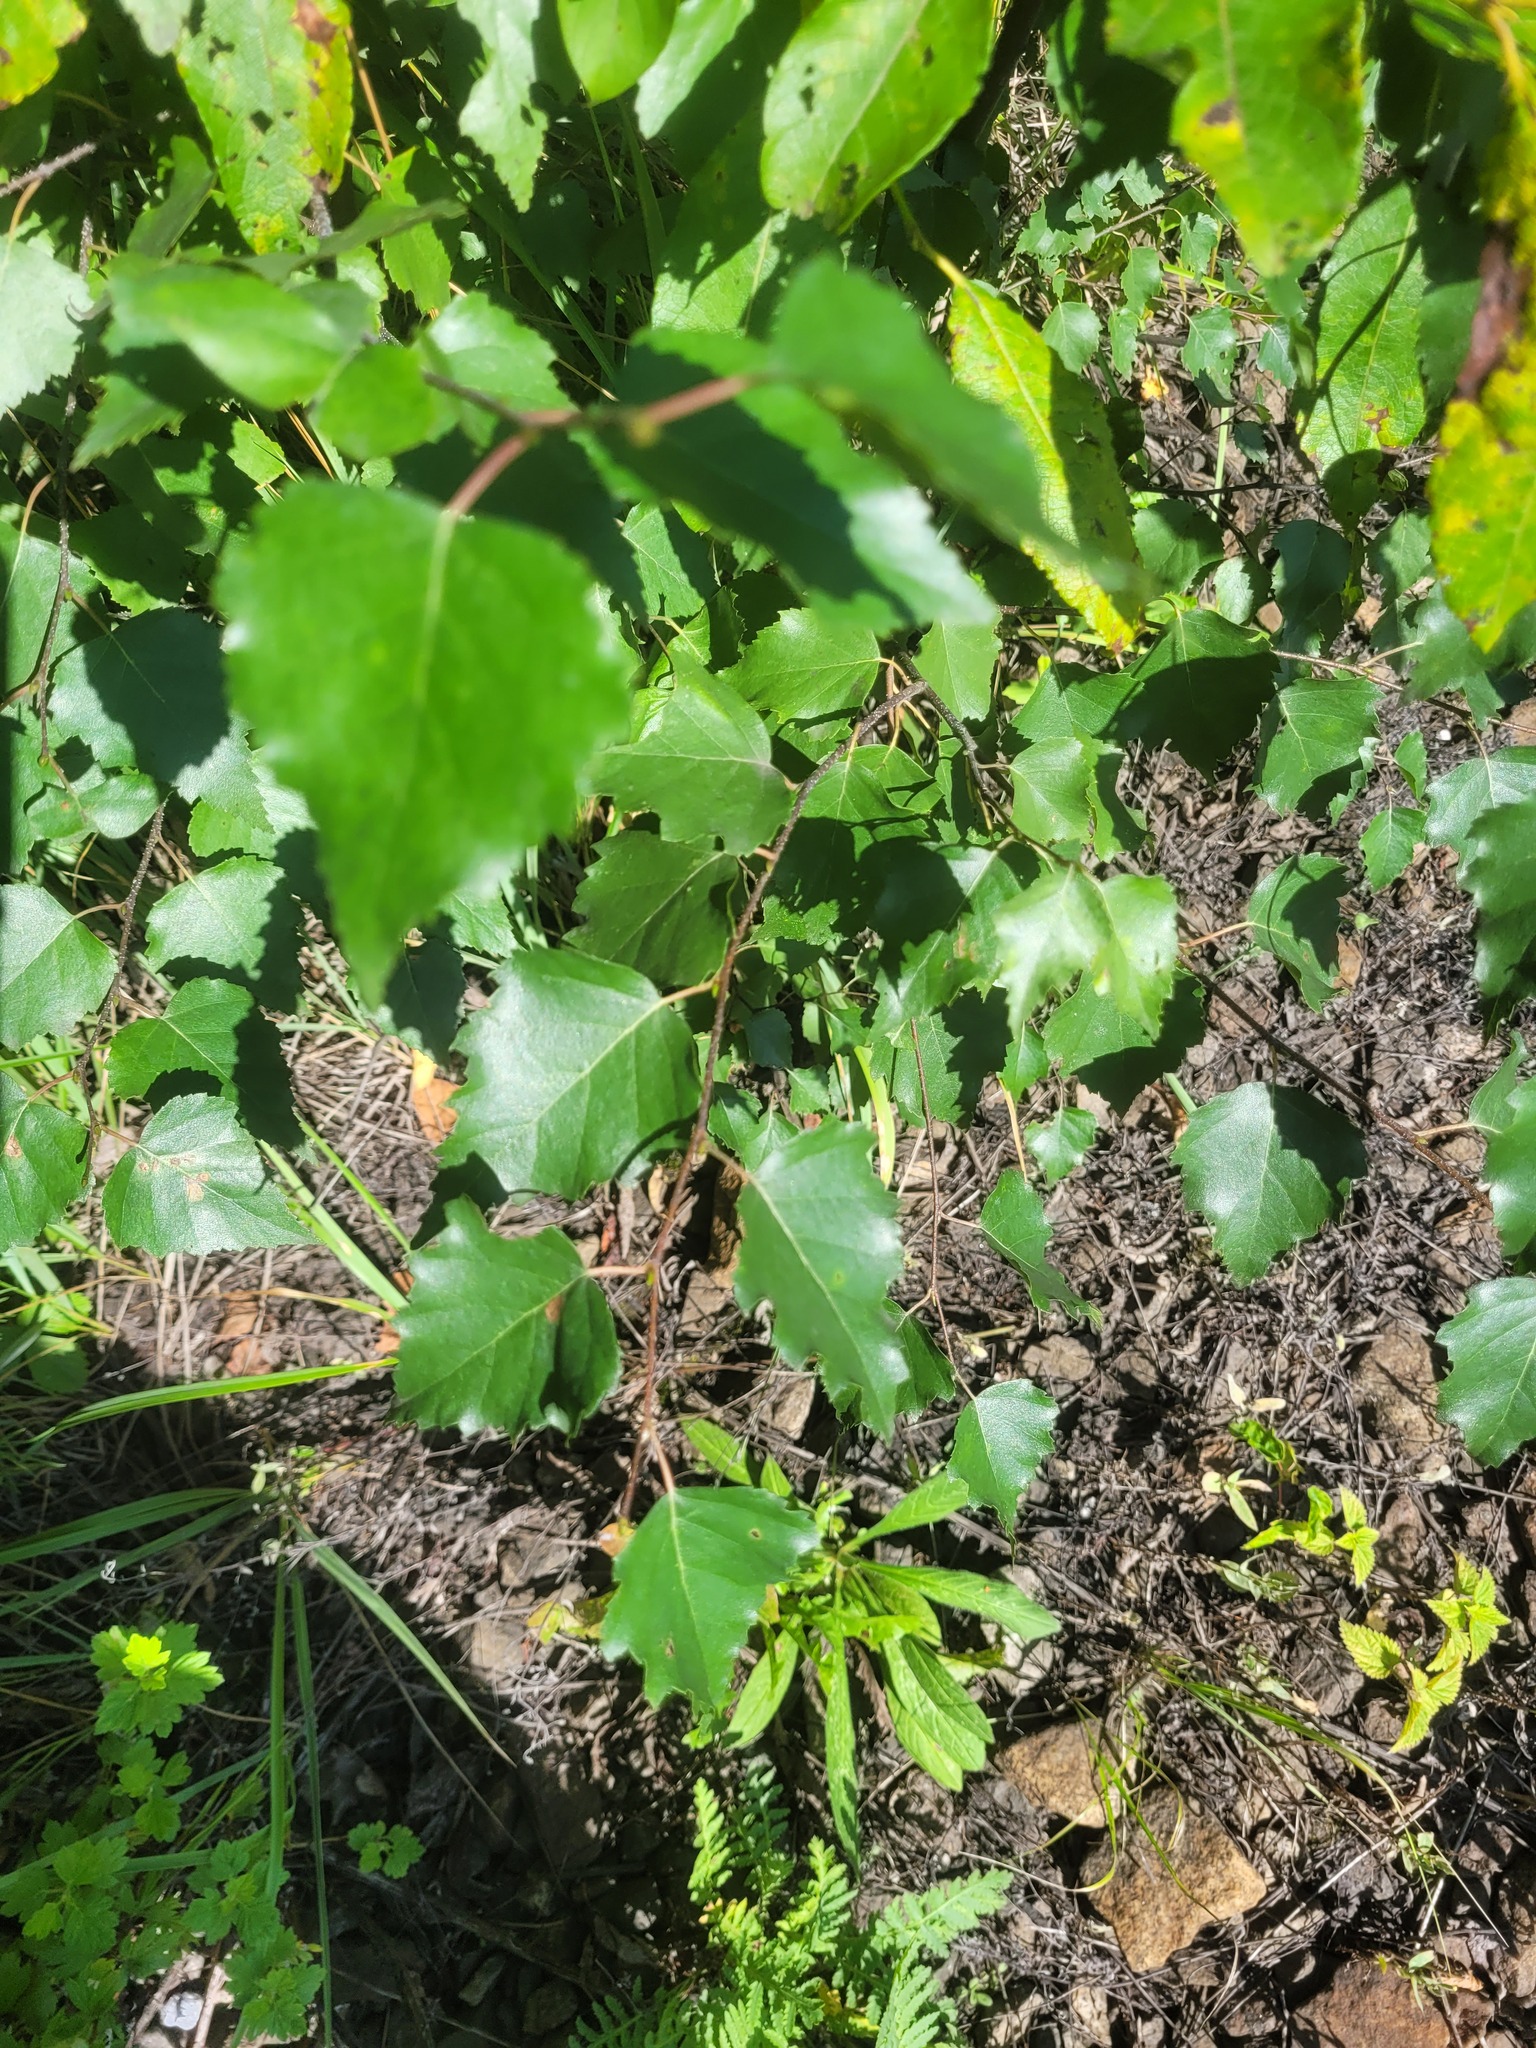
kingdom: Plantae
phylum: Tracheophyta
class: Magnoliopsida
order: Fagales
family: Betulaceae
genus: Betula
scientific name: Betula pendula
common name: Silver birch
